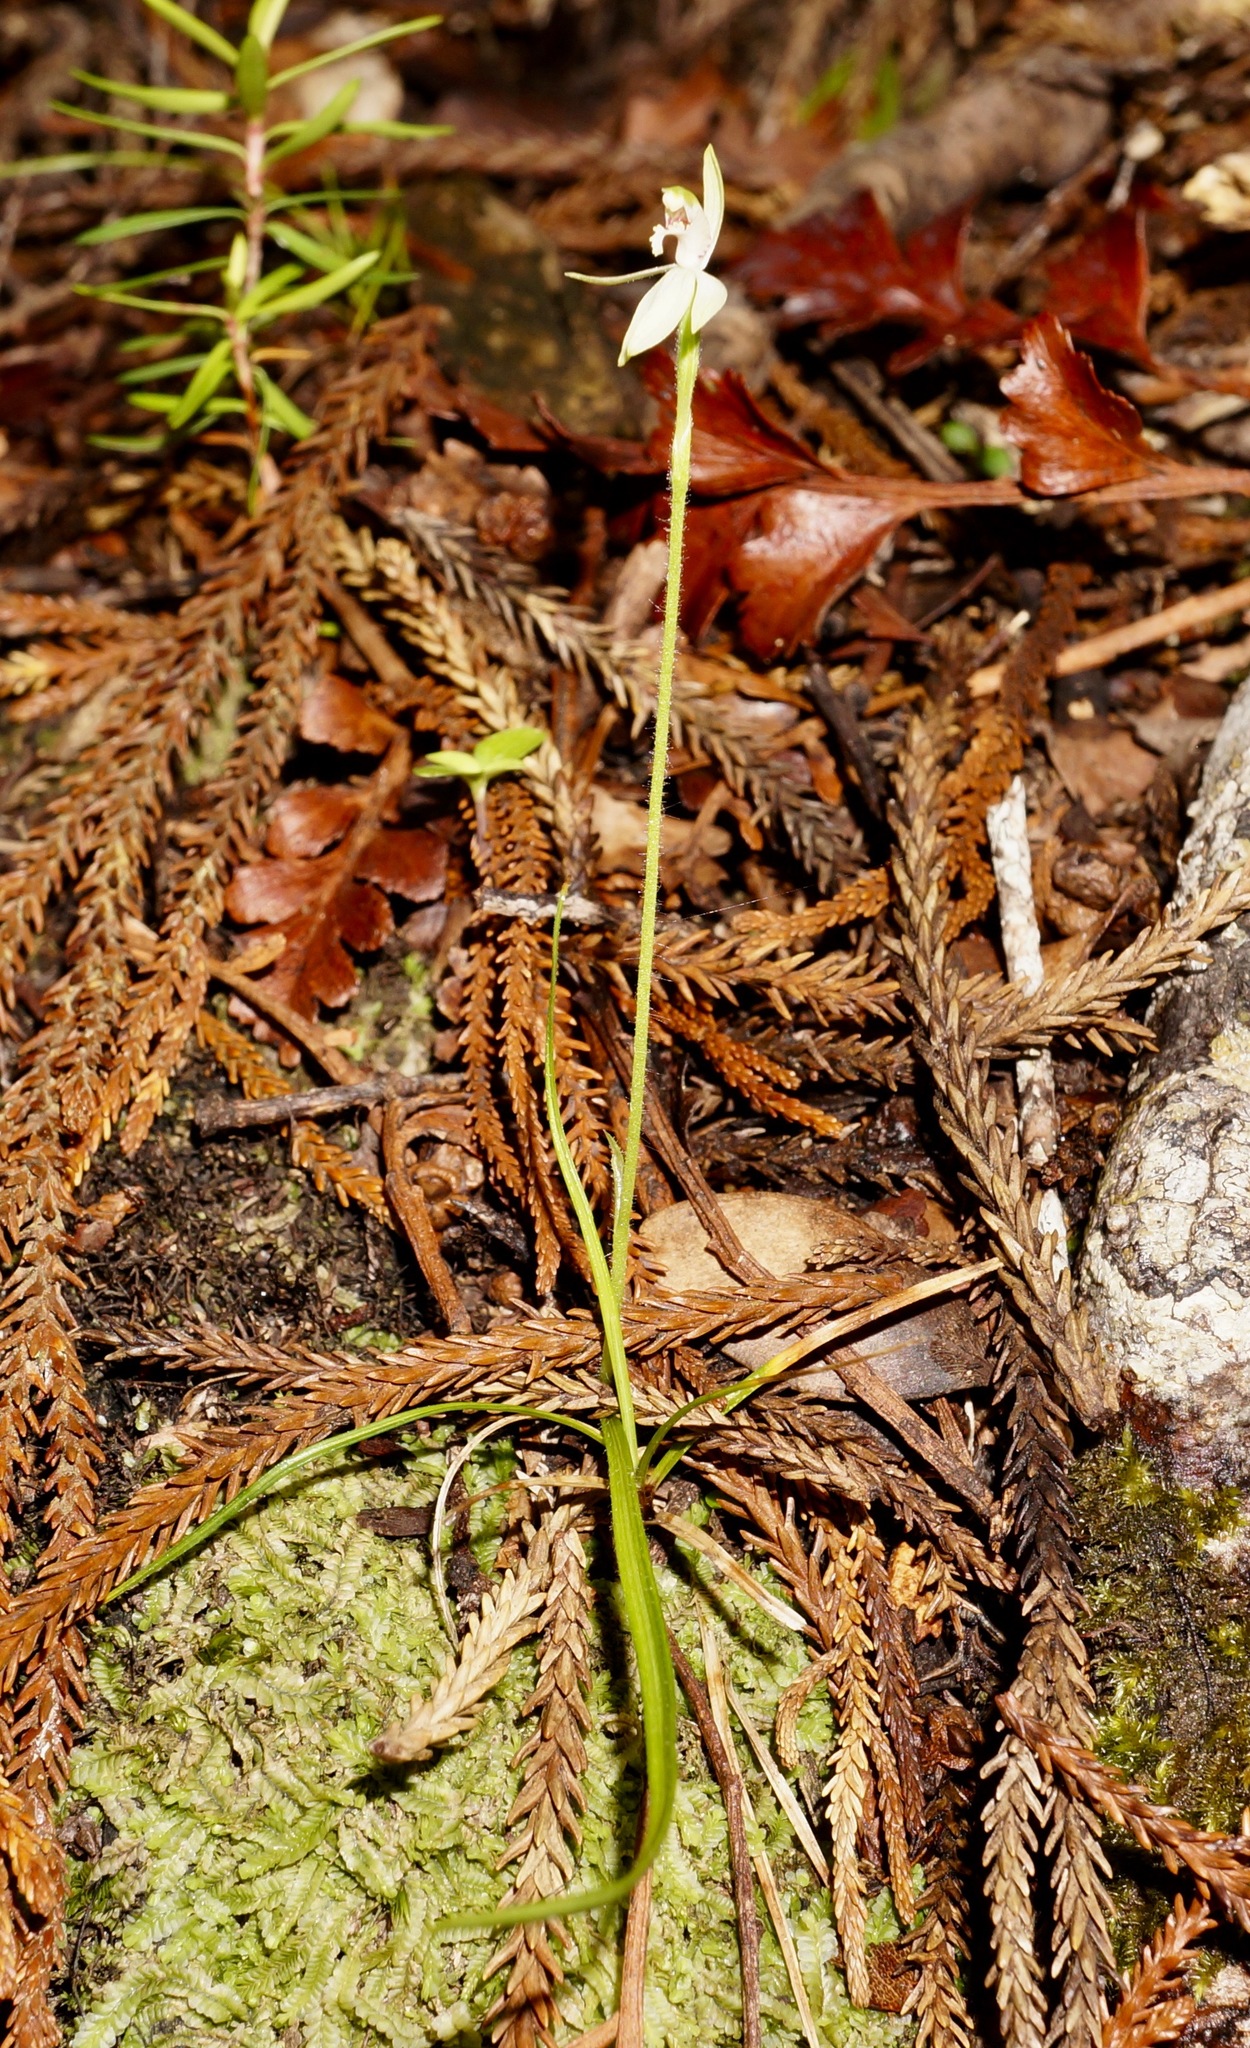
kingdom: Plantae
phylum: Tracheophyta
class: Liliopsida
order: Asparagales
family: Orchidaceae
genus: Caladenia
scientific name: Caladenia chlorostyla
